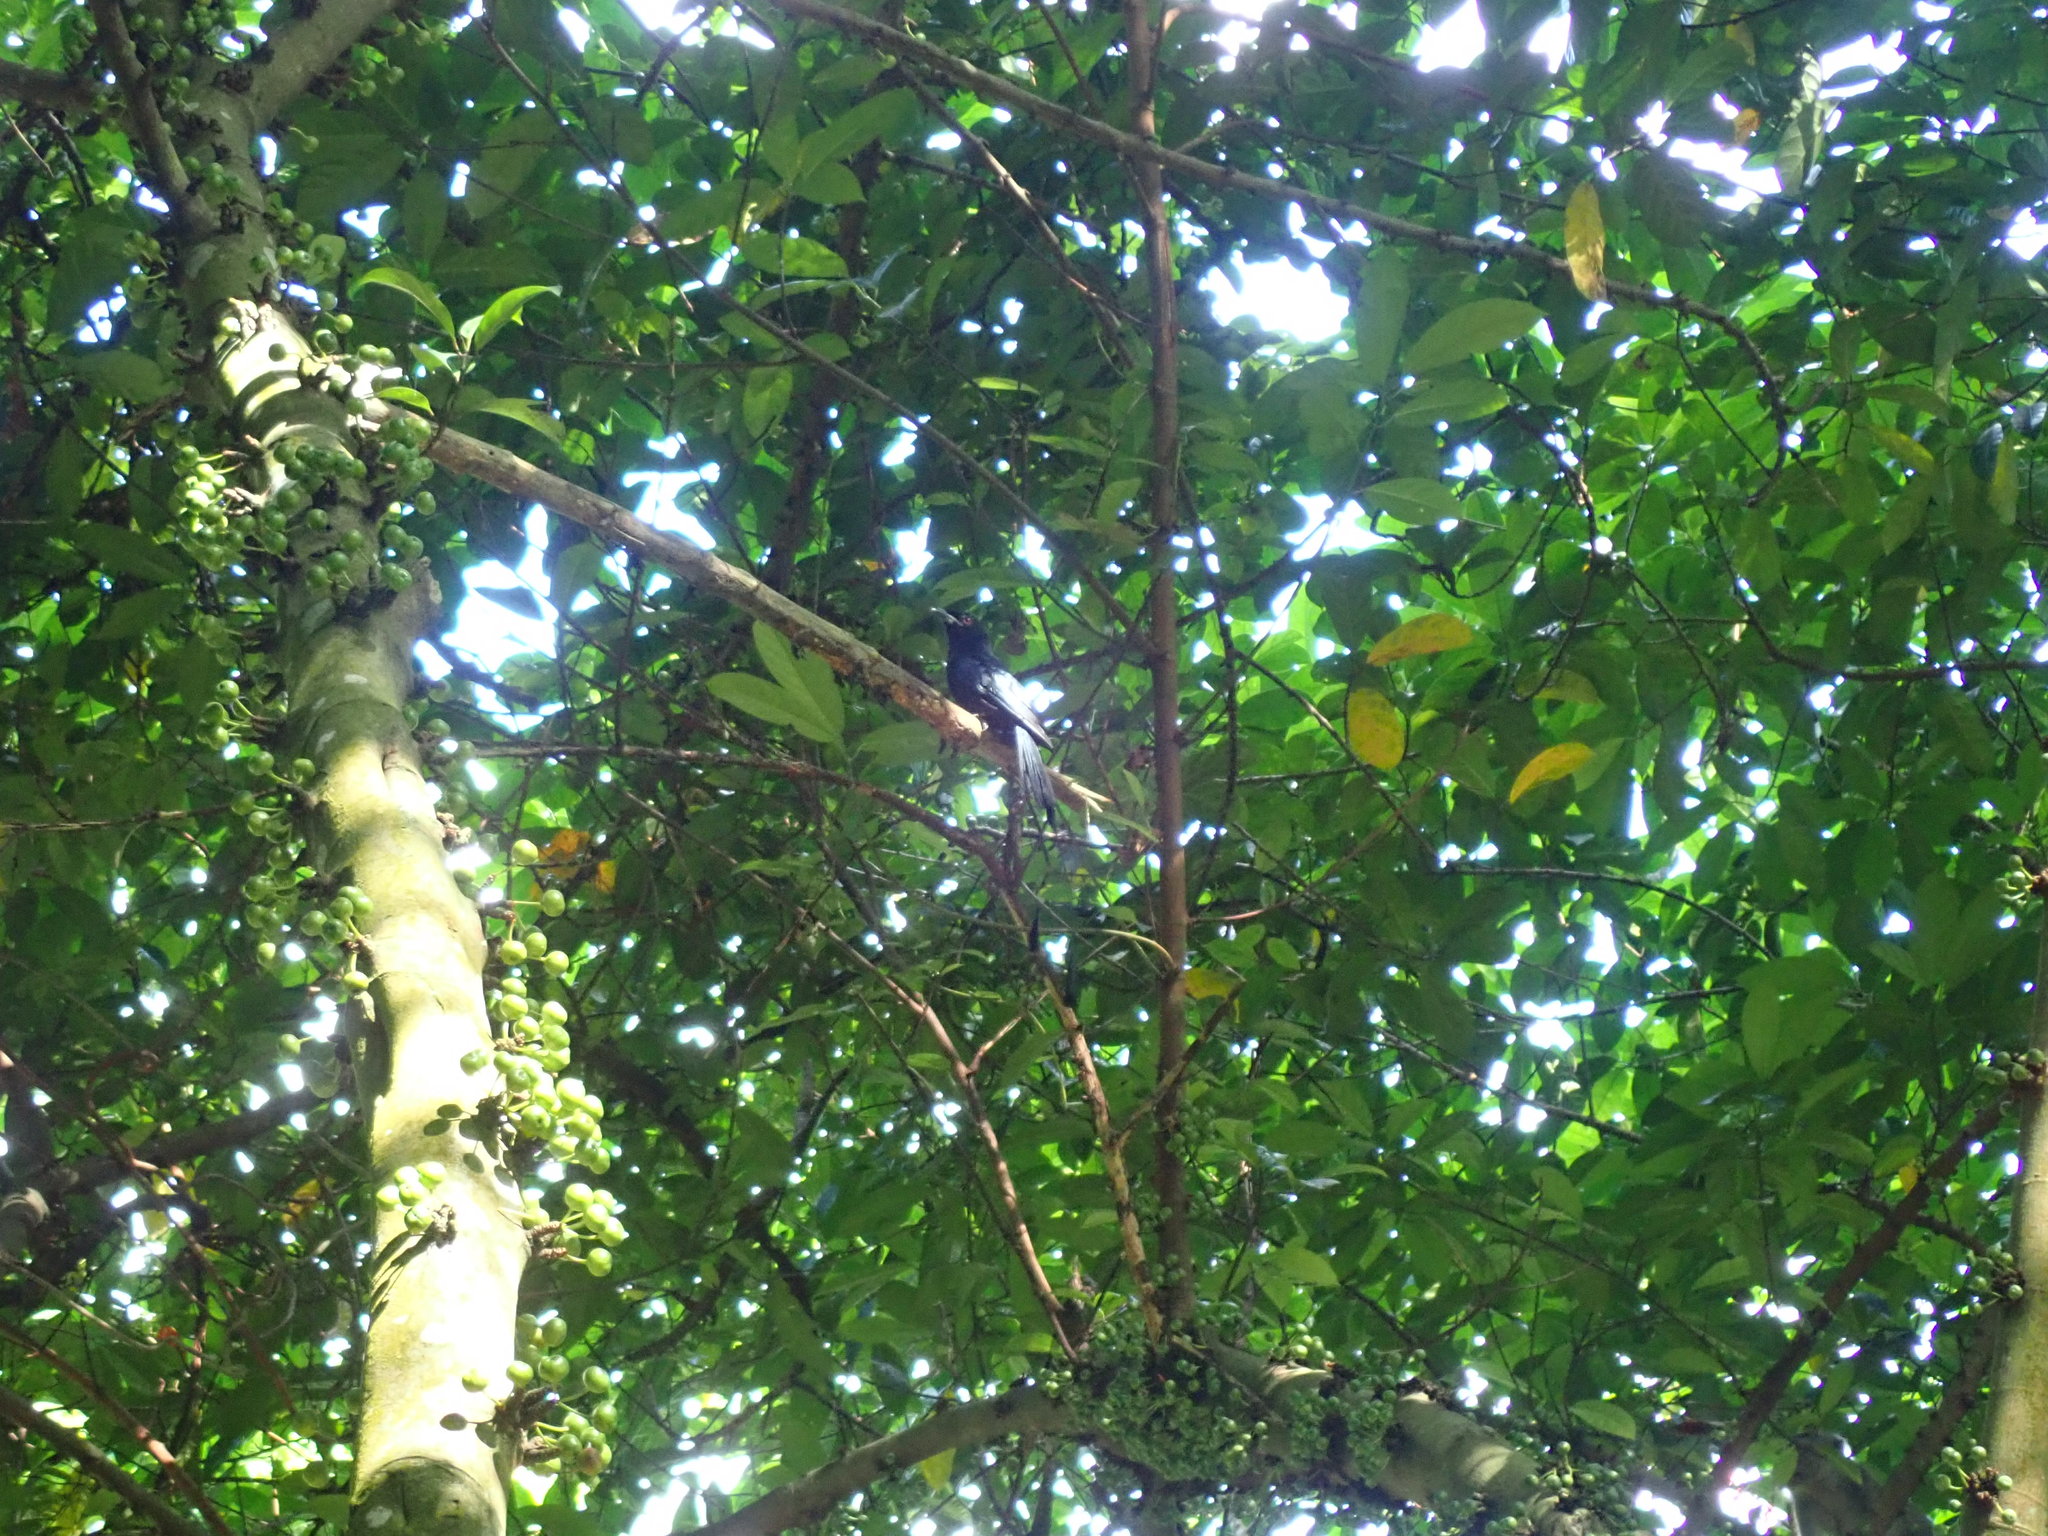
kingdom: Animalia
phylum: Chordata
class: Aves
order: Passeriformes
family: Dicruridae
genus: Dicrurus
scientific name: Dicrurus paradiseus
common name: Greater racket-tailed drongo
